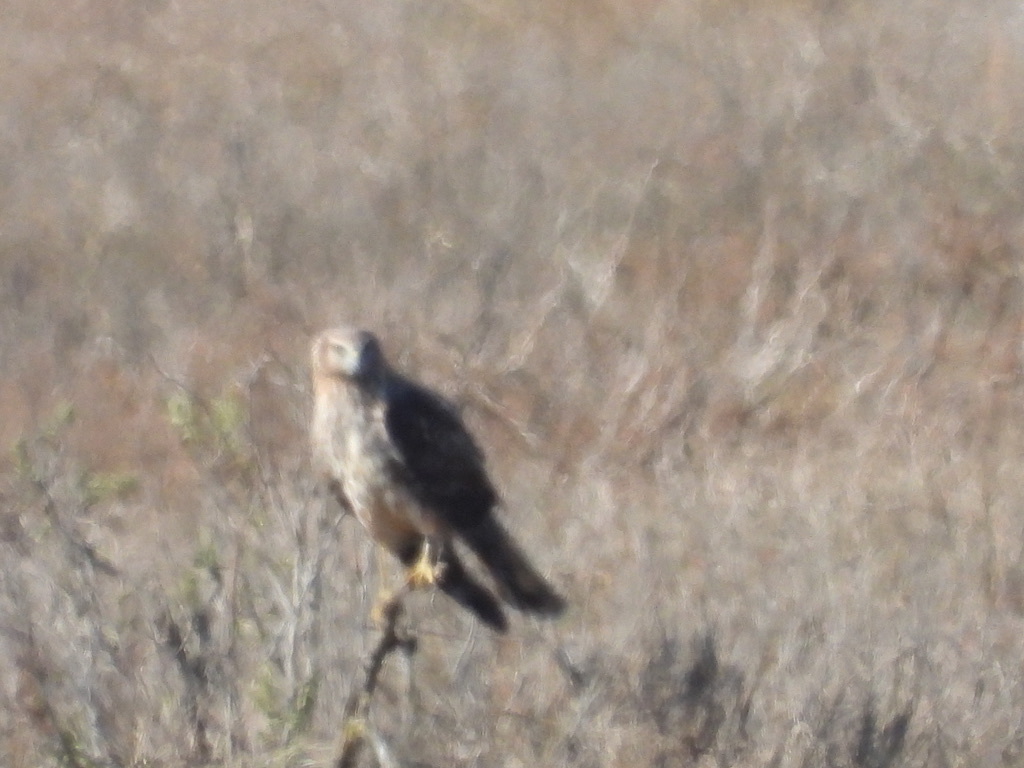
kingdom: Animalia
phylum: Chordata
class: Aves
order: Accipitriformes
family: Accipitridae
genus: Circus
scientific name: Circus cyaneus
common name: Hen harrier
